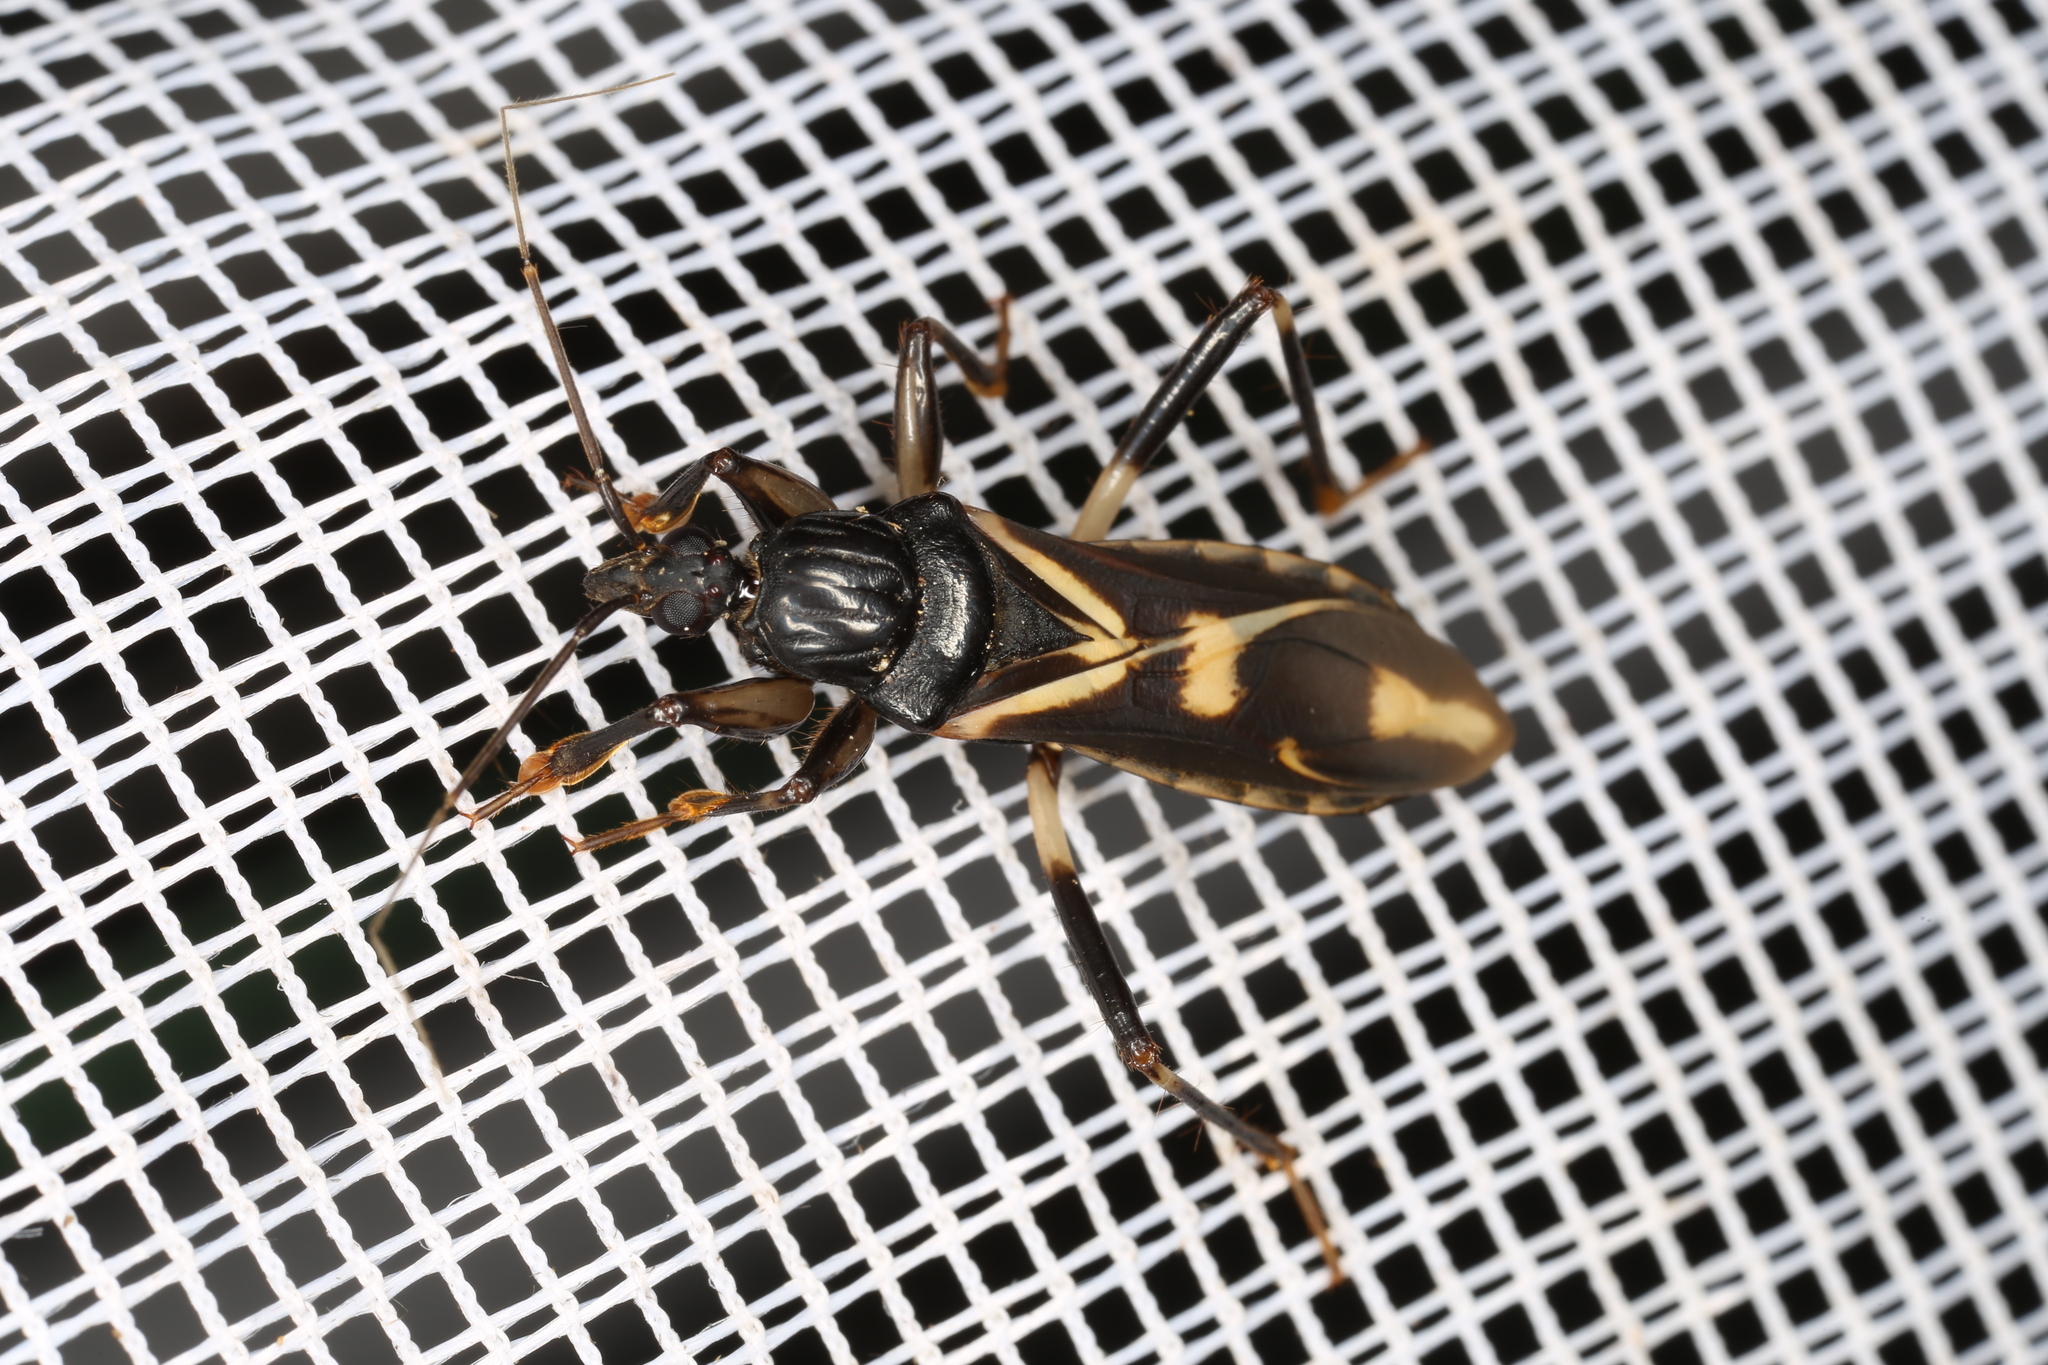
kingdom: Animalia
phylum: Arthropoda
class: Insecta
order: Hemiptera
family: Reduviidae
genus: Rasahus
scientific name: Rasahus sulcicollis
